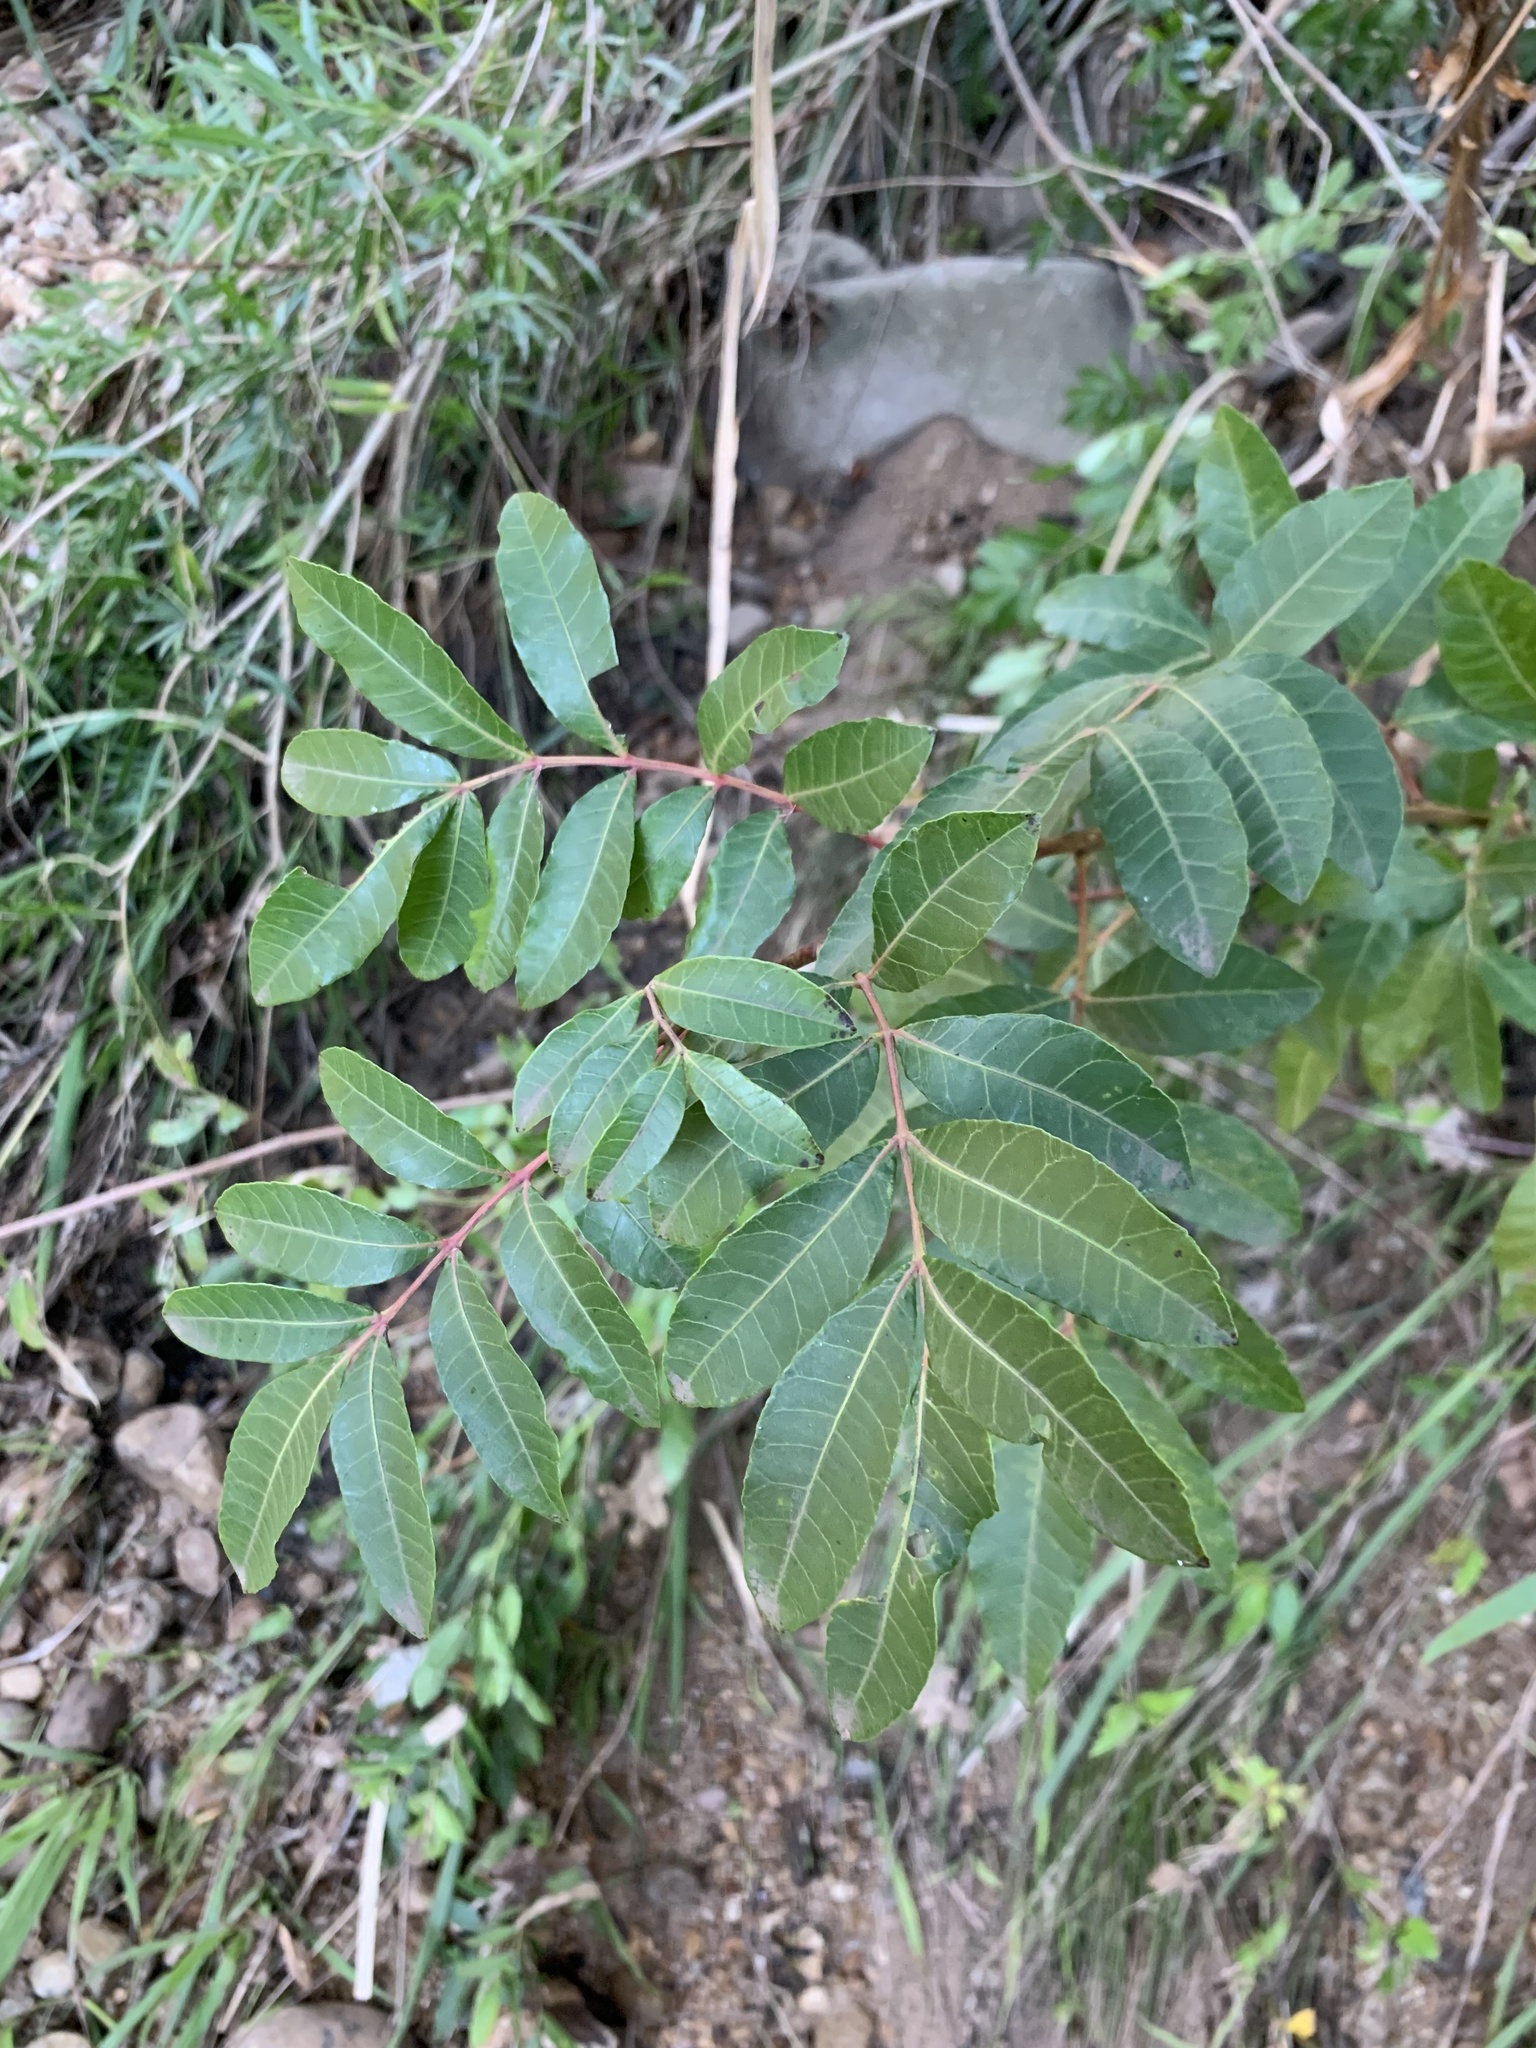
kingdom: Plantae
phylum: Tracheophyta
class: Magnoliopsida
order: Sapindales
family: Anacardiaceae
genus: Schinus
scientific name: Schinus terebinthifolia
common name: Brazilian peppertree
